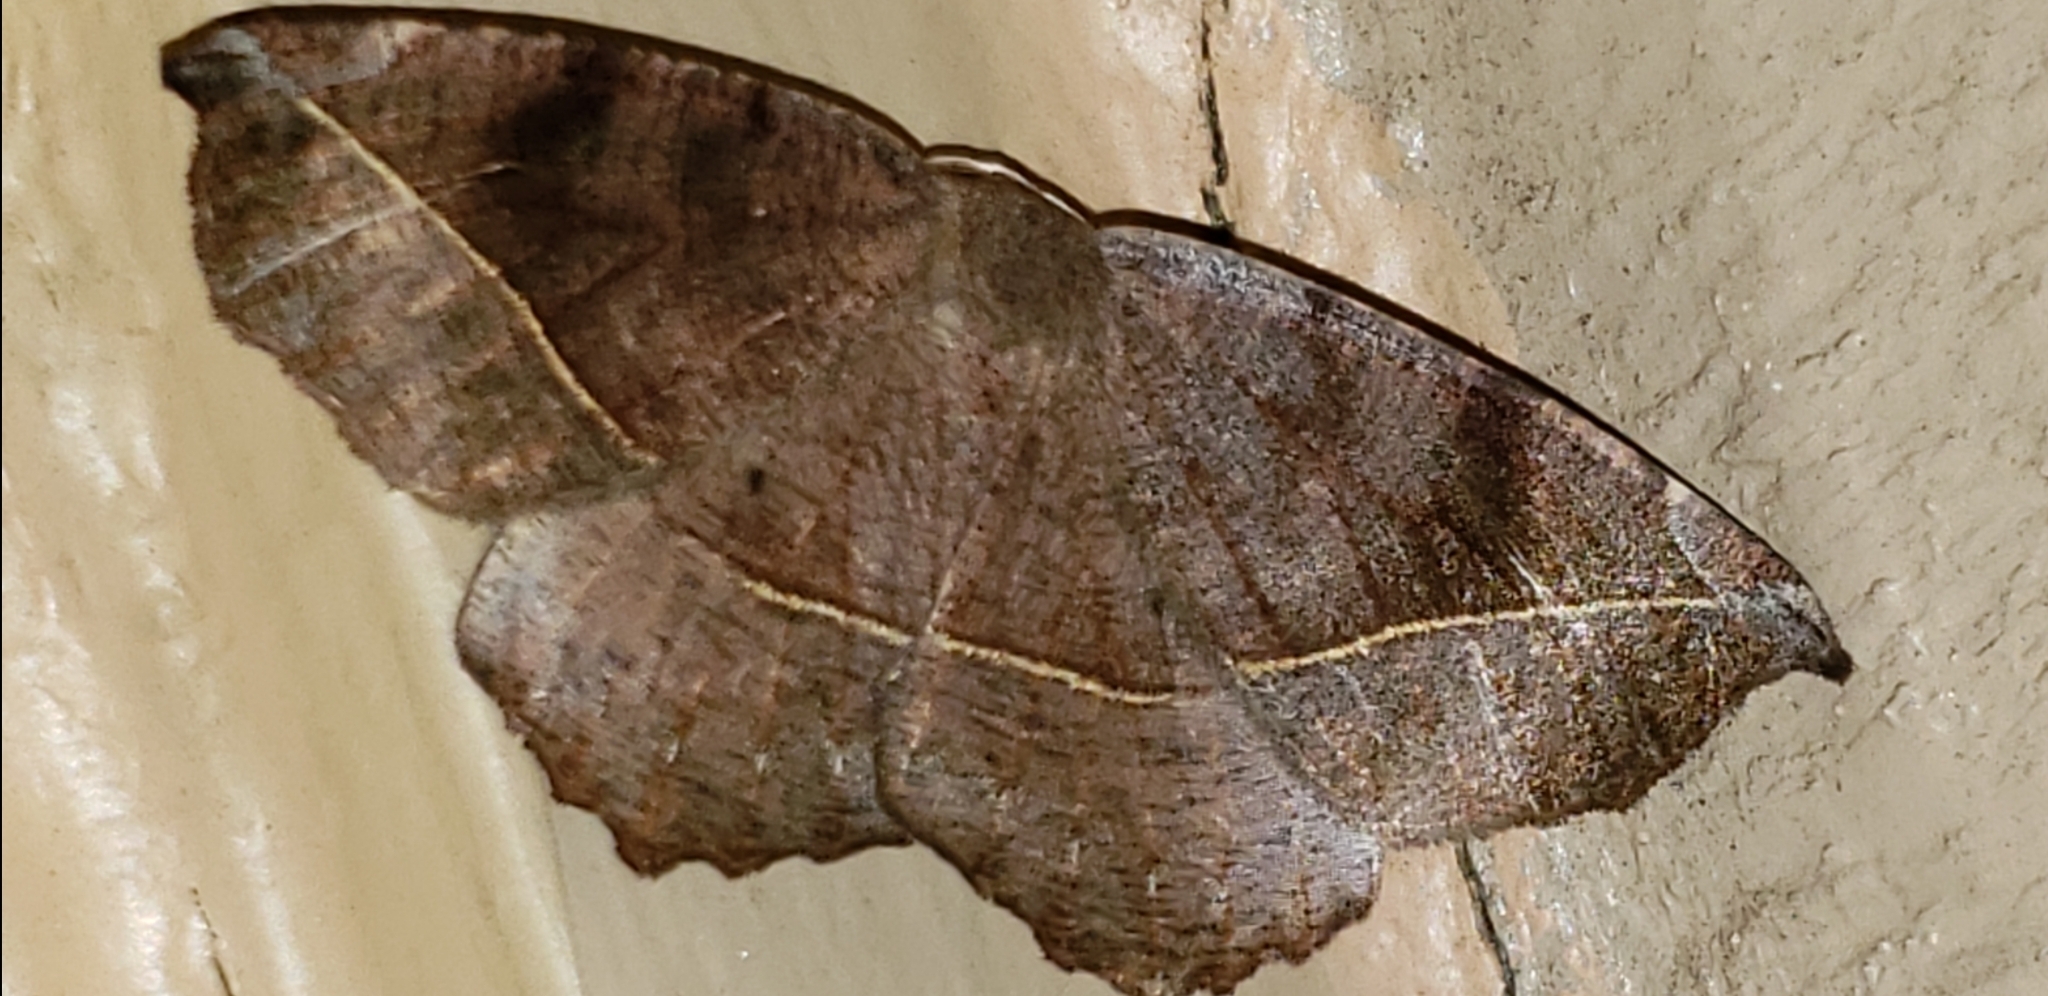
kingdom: Animalia
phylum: Arthropoda
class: Insecta
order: Lepidoptera
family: Geometridae
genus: Eutrapela
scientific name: Eutrapela clemataria
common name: Curved-toothed geometer
